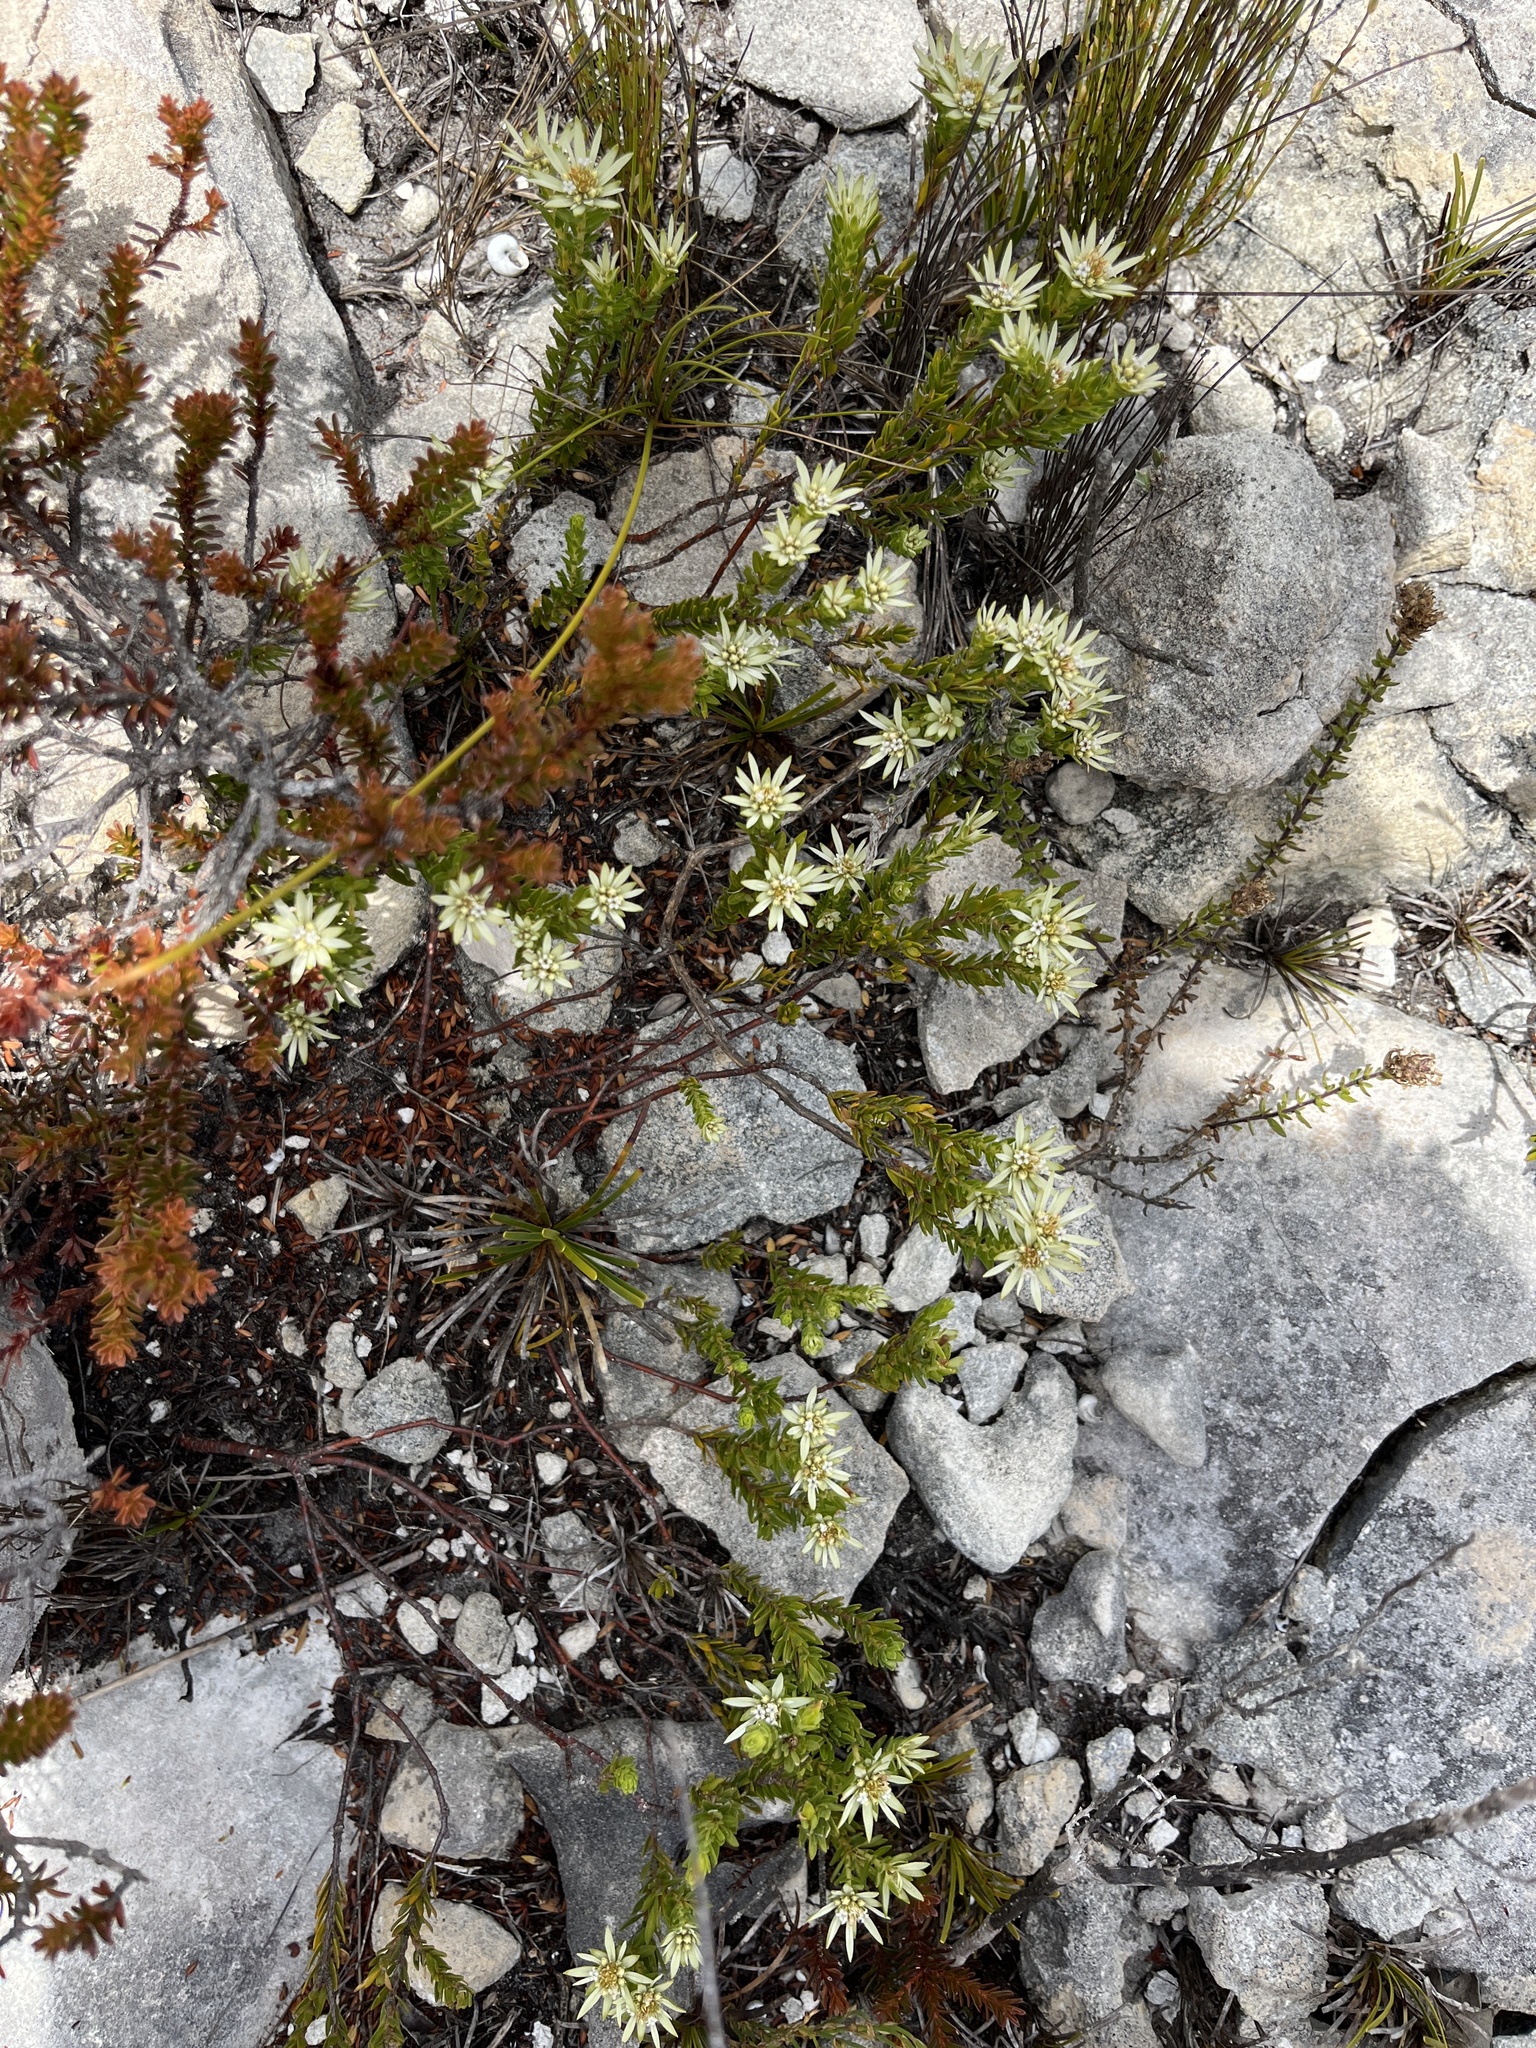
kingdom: Plantae
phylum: Tracheophyta
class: Magnoliopsida
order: Sapindales
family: Rutaceae
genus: Euchaetis
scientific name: Euchaetis longibracteata
